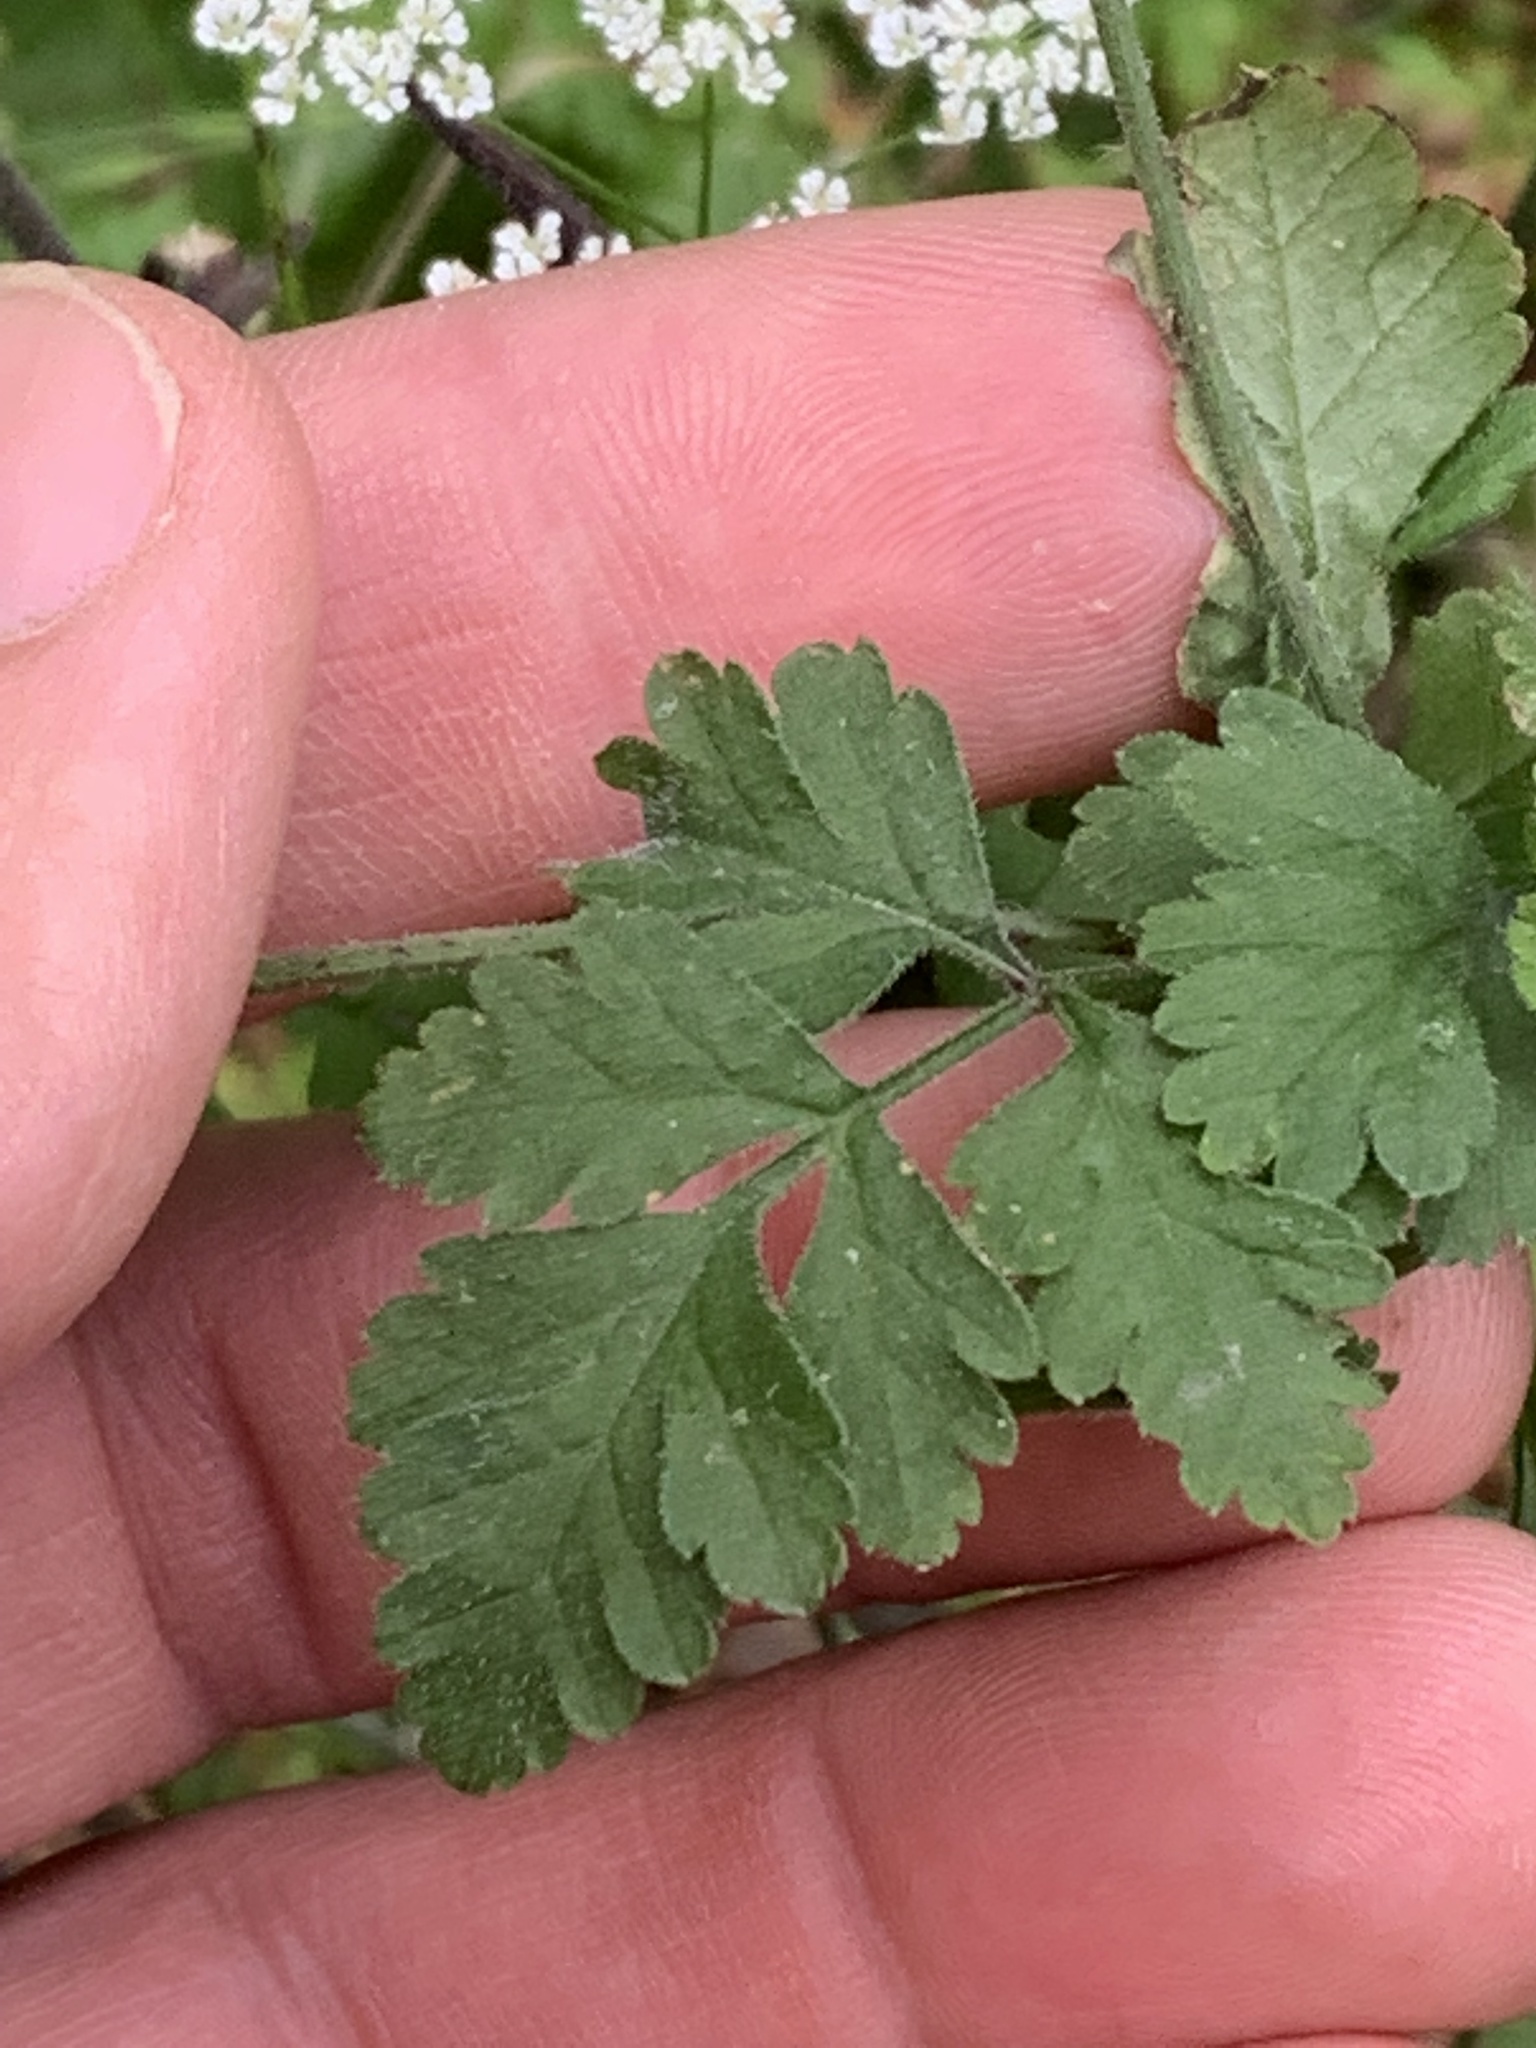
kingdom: Plantae
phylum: Tracheophyta
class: Magnoliopsida
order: Apiales
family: Apiaceae
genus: Chaerophyllum
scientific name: Chaerophyllum temulum
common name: Rough chervil
